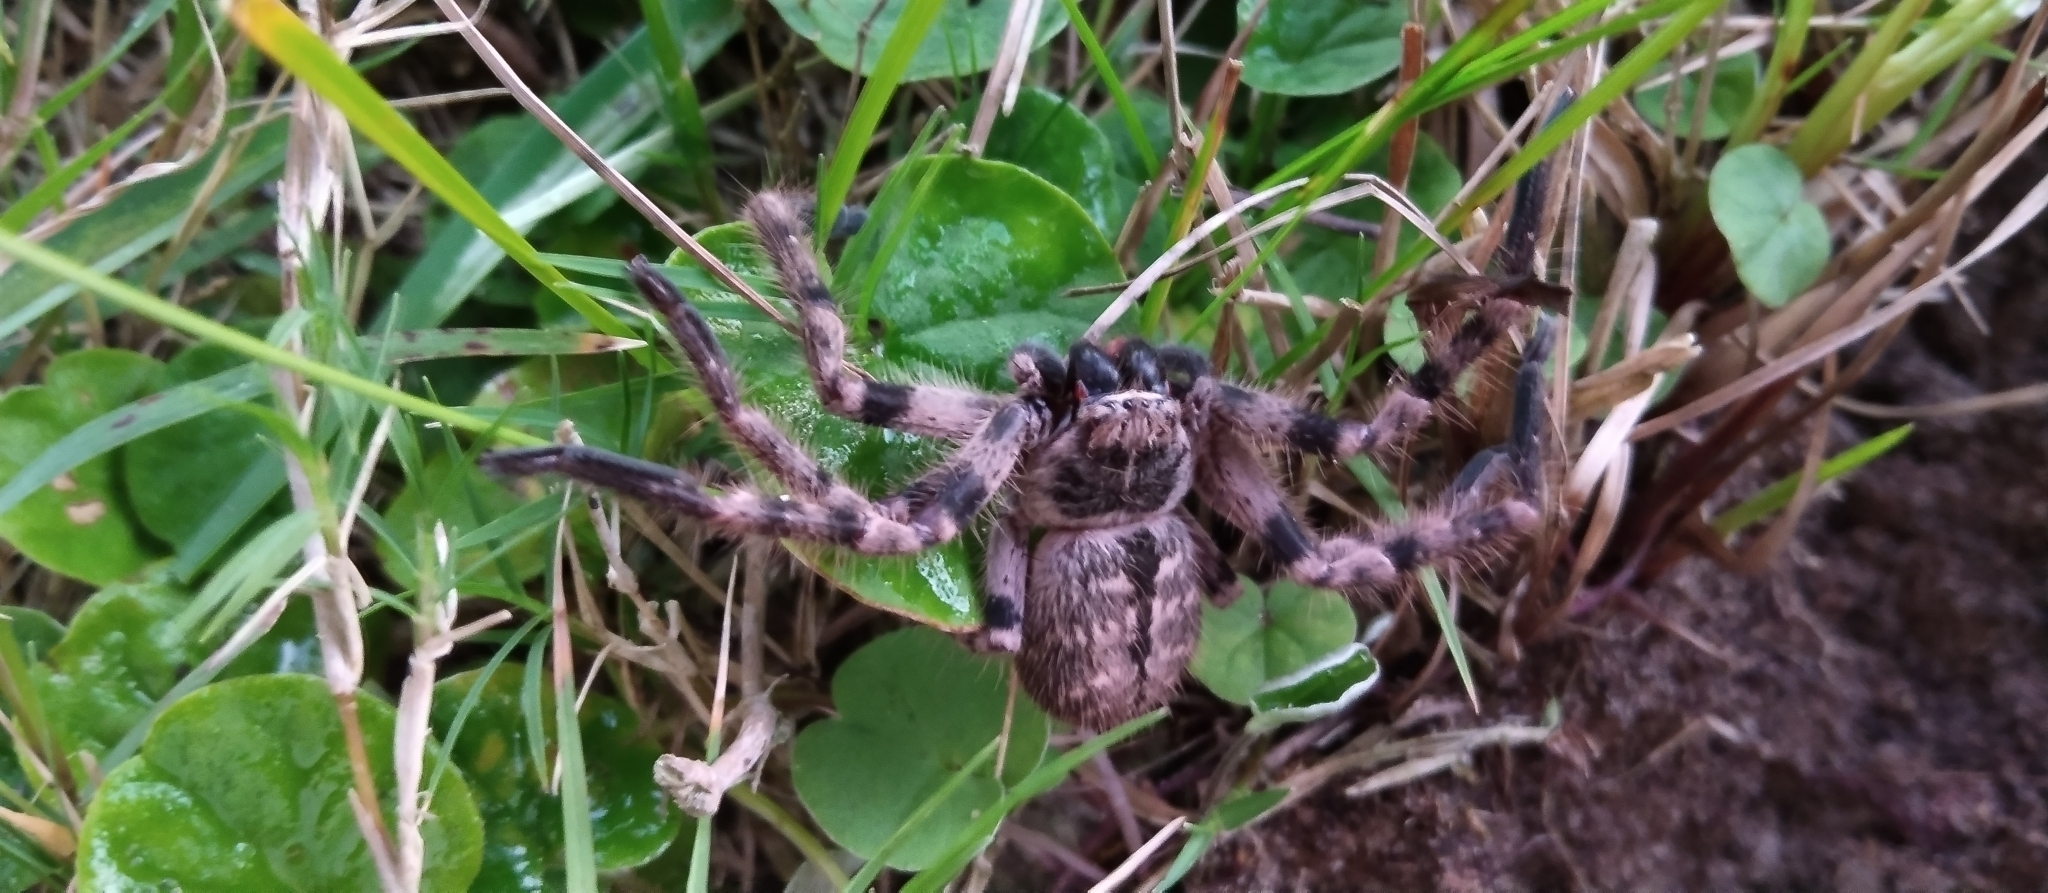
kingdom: Animalia
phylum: Arthropoda
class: Arachnida
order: Araneae
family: Sparassidae
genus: Polybetes
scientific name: Polybetes pythagoricus
